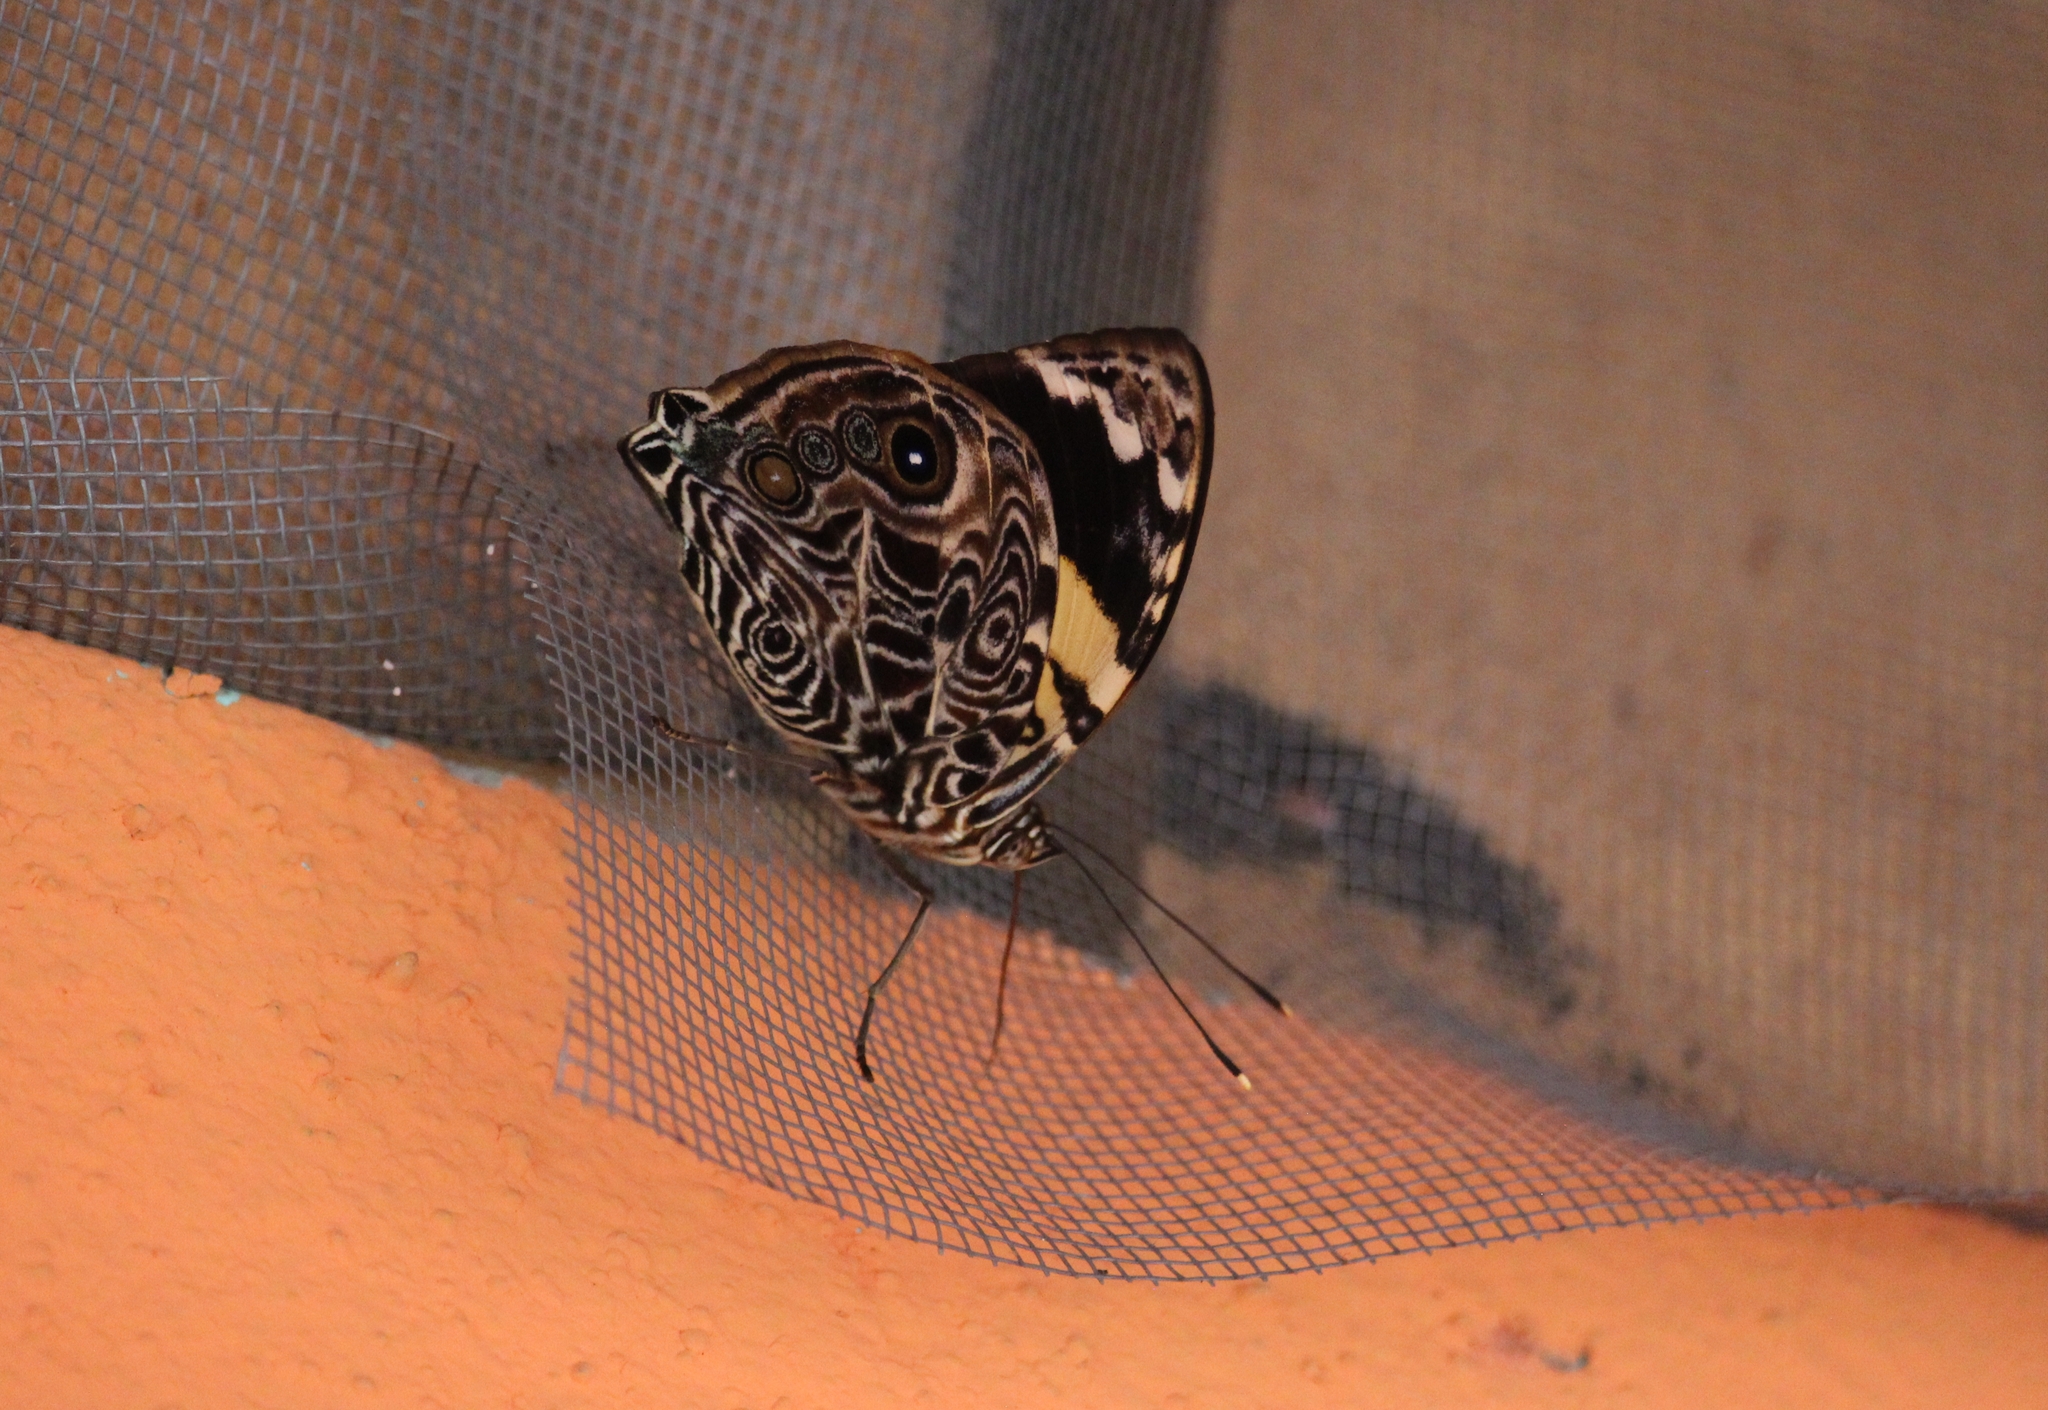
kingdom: Animalia
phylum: Arthropoda
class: Insecta
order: Lepidoptera
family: Nymphalidae
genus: Smyrna
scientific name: Smyrna blomfildia
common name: Blomfild's beauty
